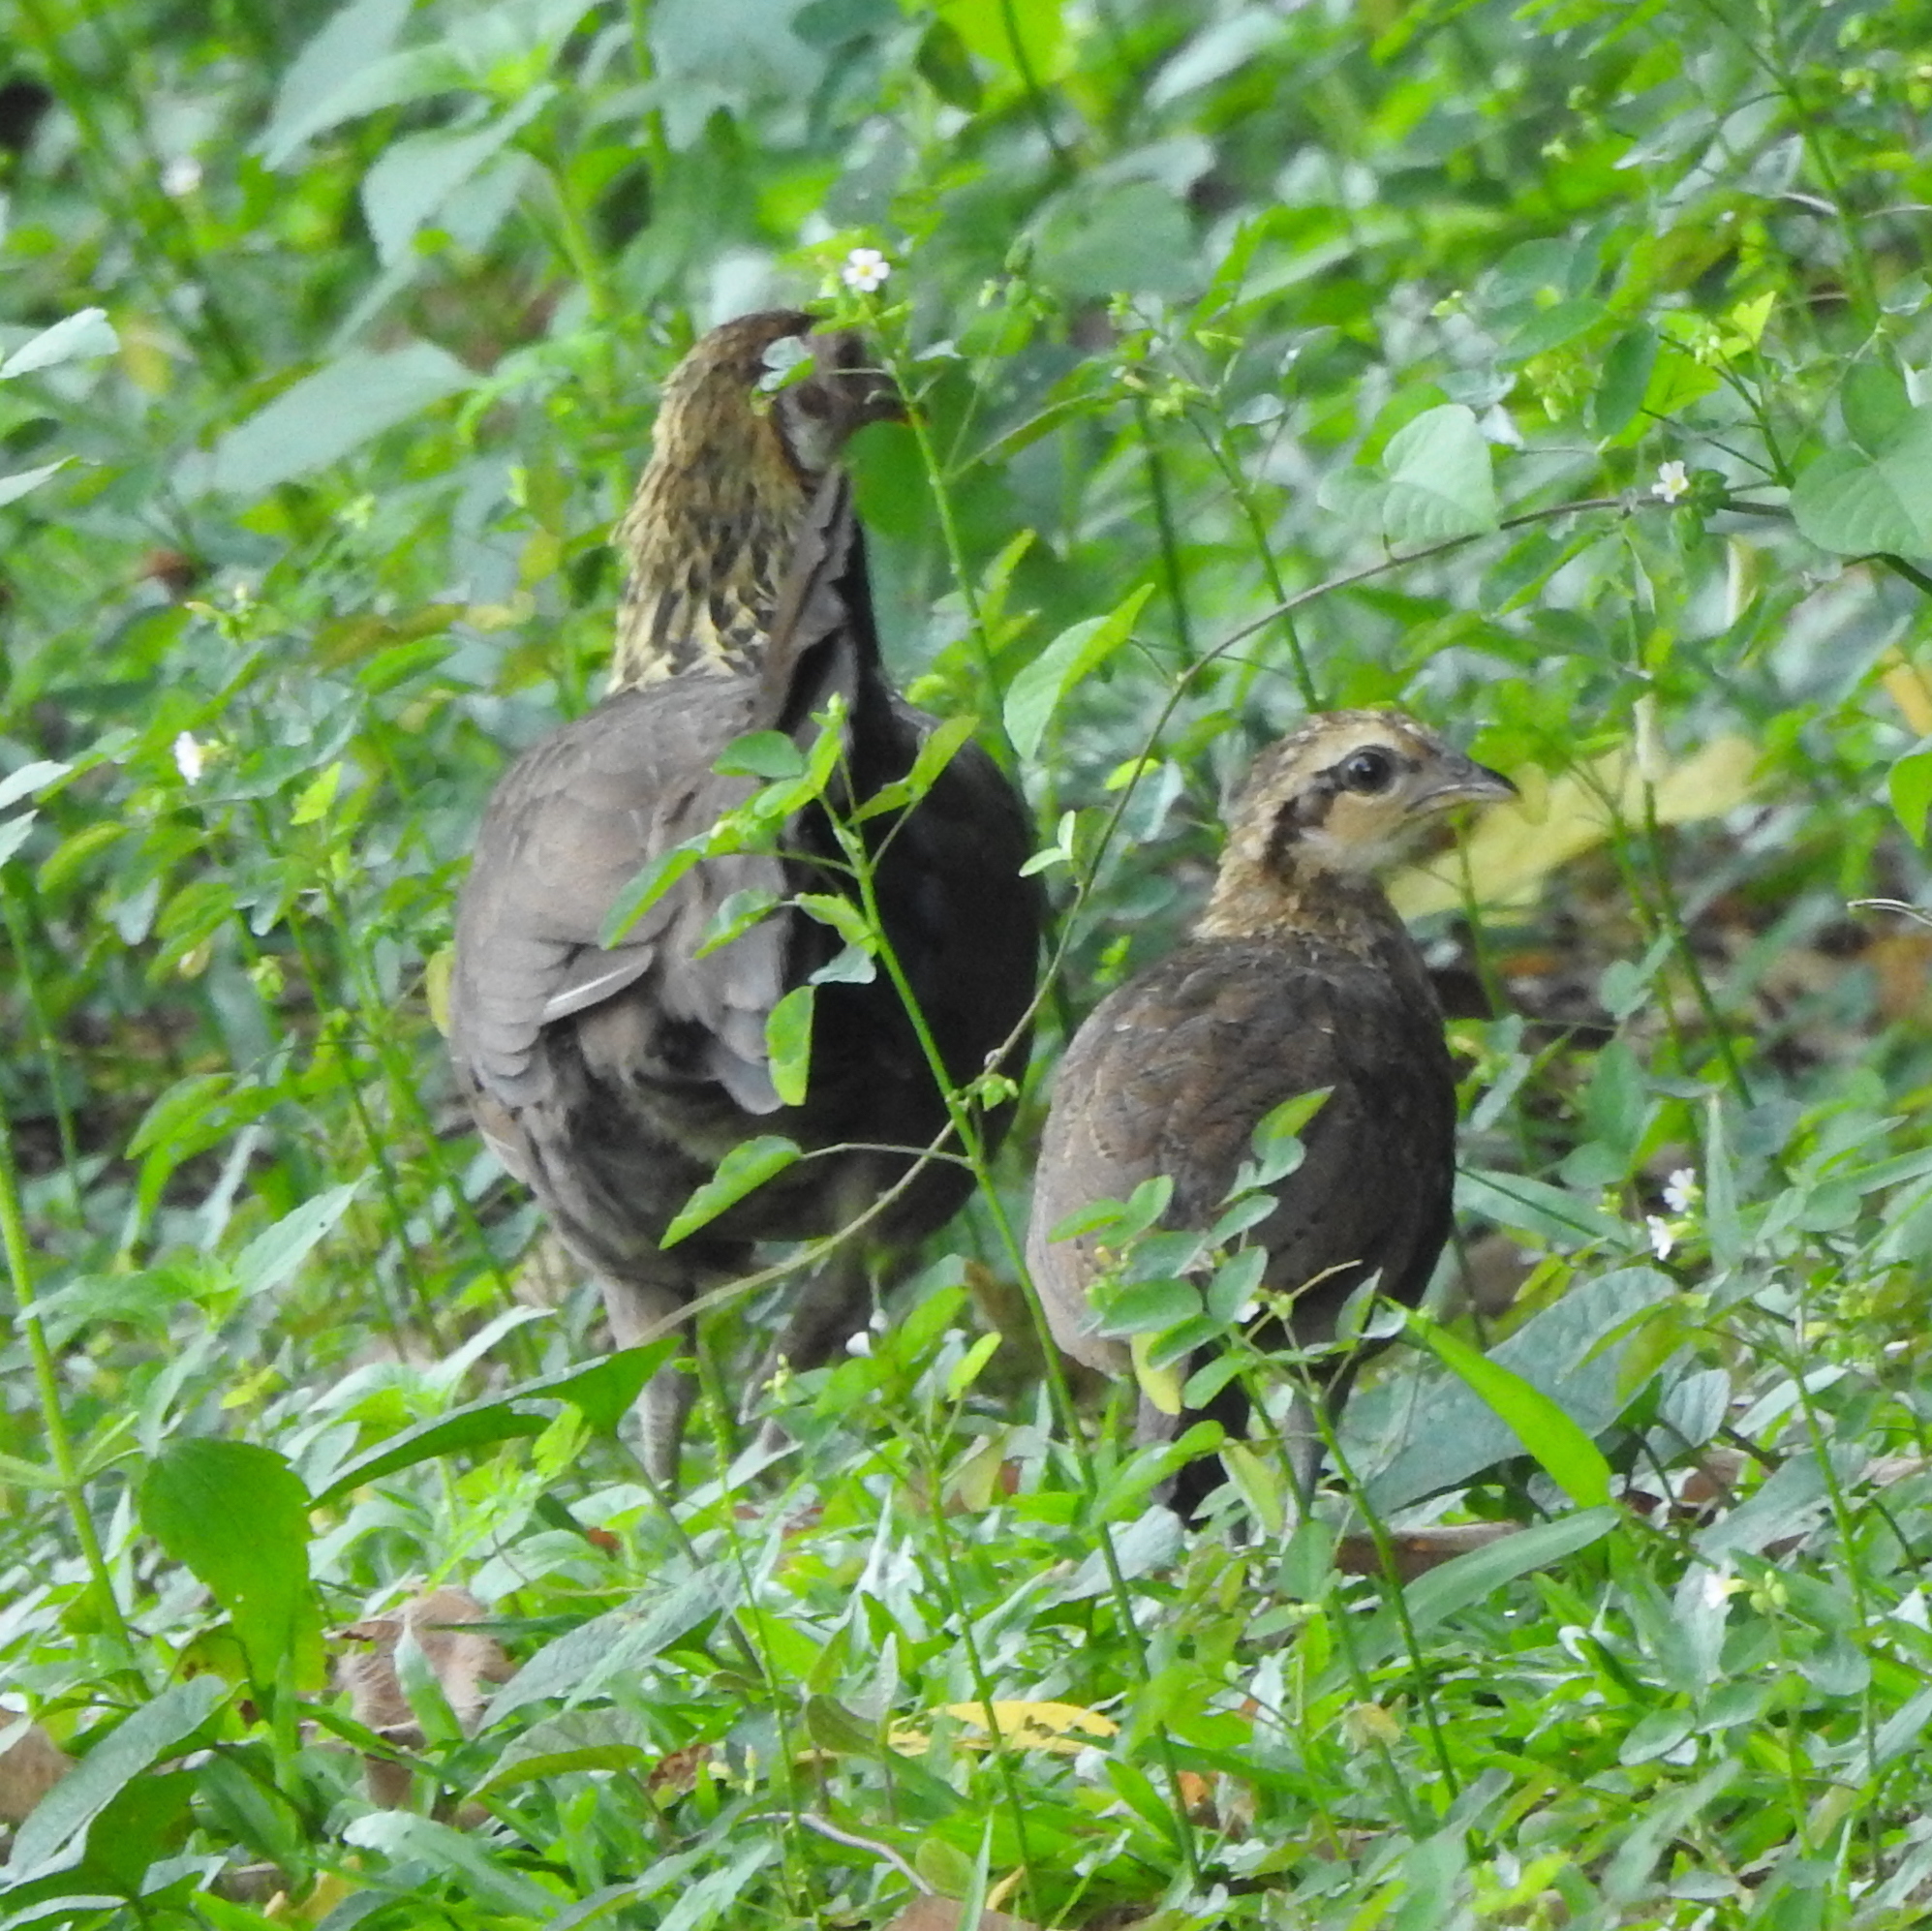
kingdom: Animalia
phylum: Chordata
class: Aves
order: Galliformes
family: Phasianidae
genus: Gallus
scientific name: Gallus gallus
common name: Red junglefowl
